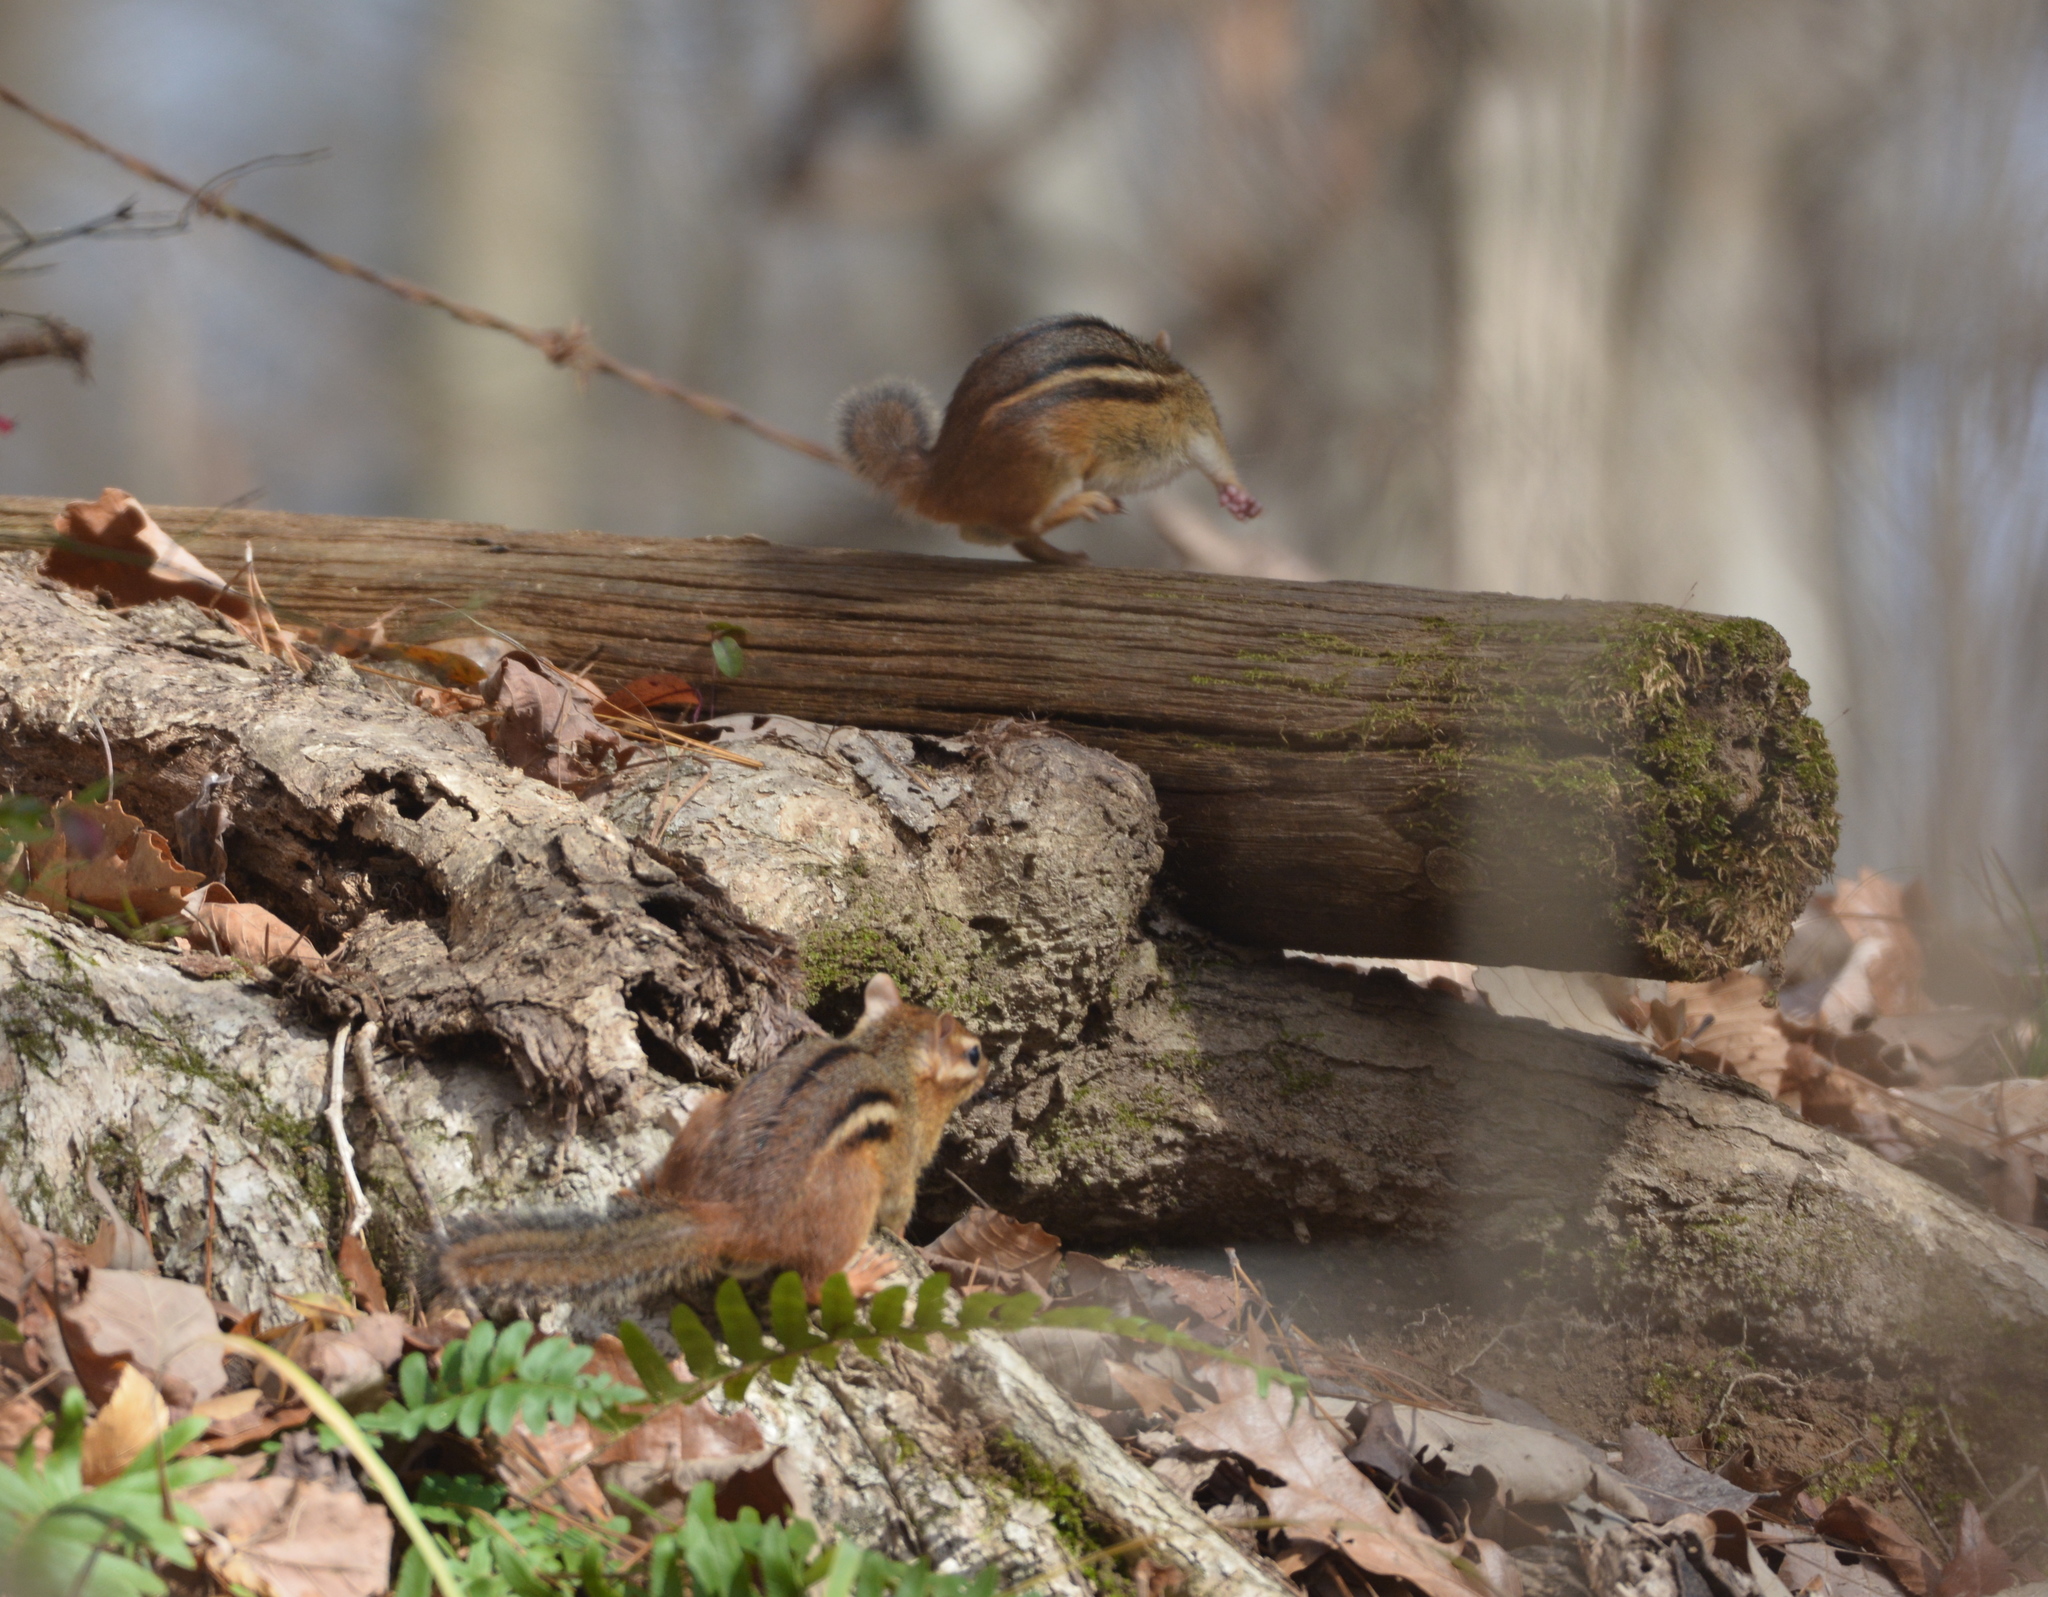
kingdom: Animalia
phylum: Chordata
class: Mammalia
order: Rodentia
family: Sciuridae
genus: Tamias
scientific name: Tamias striatus
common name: Eastern chipmunk
